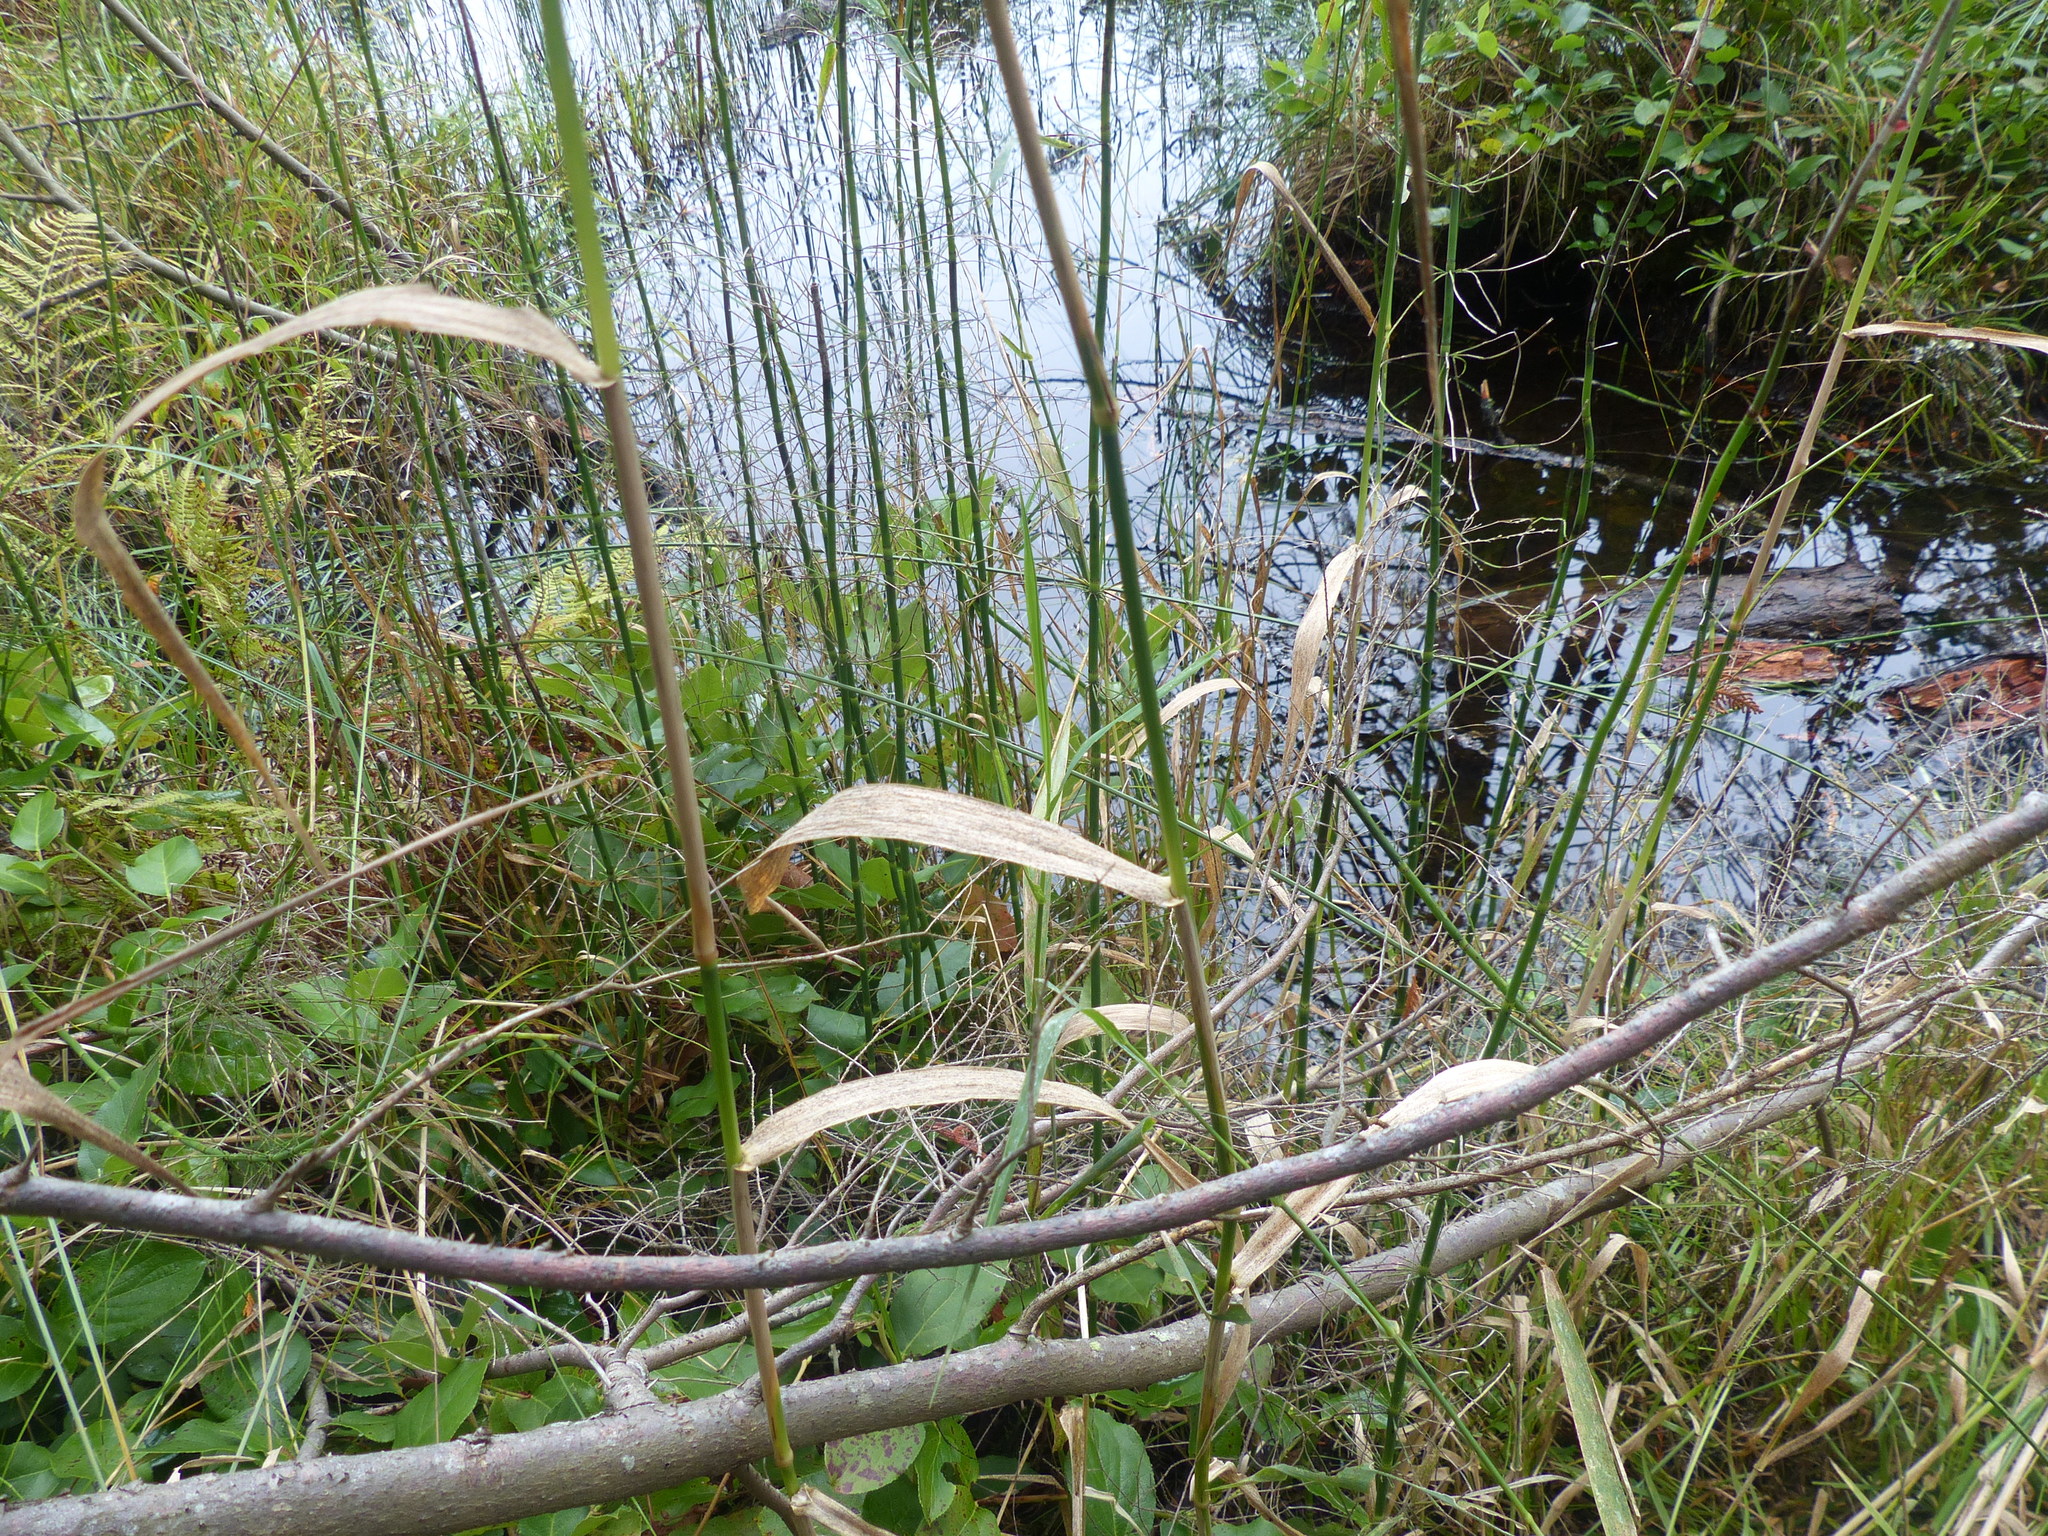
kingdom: Plantae
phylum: Tracheophyta
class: Liliopsida
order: Poales
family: Poaceae
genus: Phalaris
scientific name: Phalaris arundinacea
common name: Reed canary-grass
